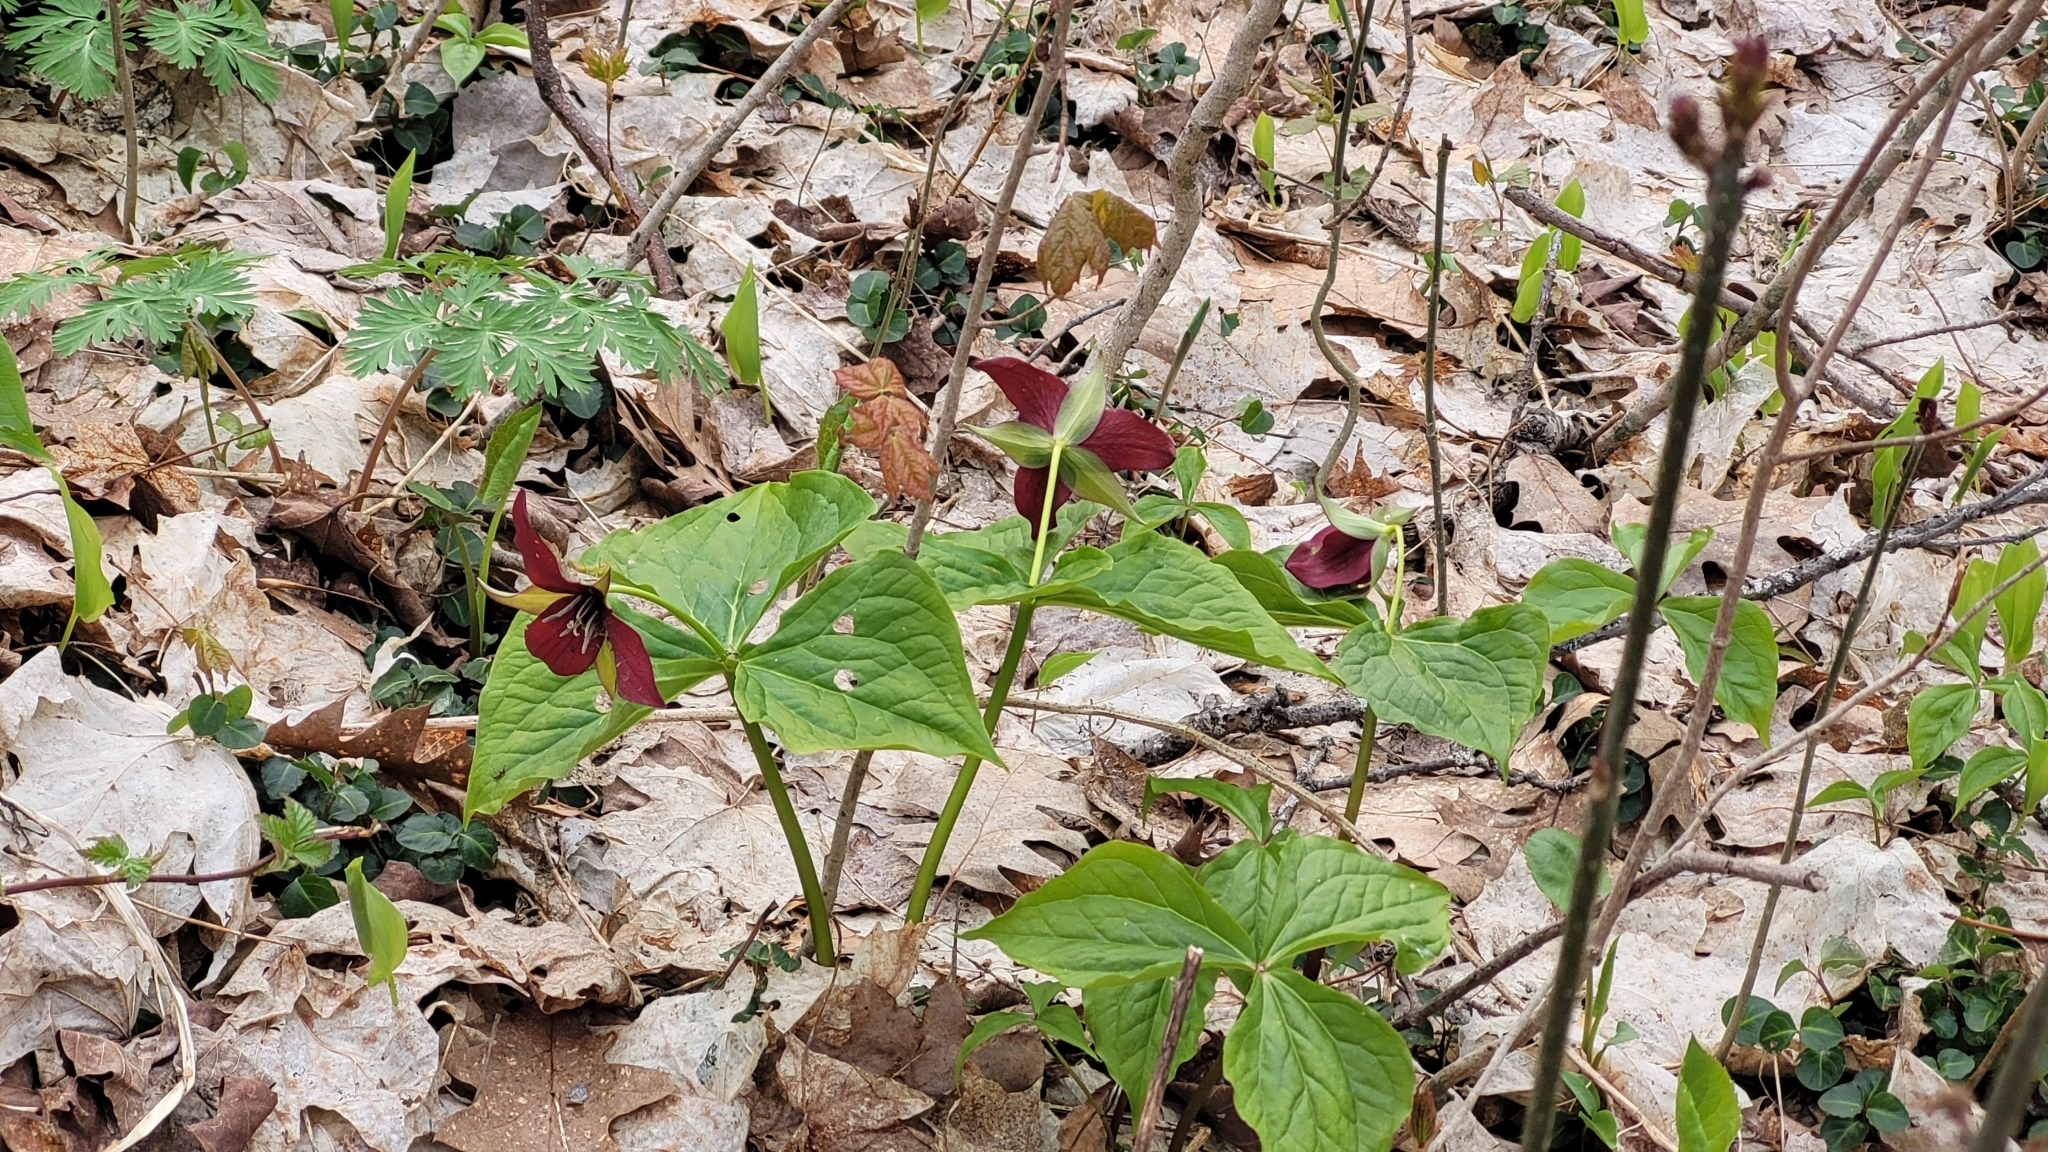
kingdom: Plantae
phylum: Tracheophyta
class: Liliopsida
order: Liliales
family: Melanthiaceae
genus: Trillium
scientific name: Trillium erectum
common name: Purple trillium
